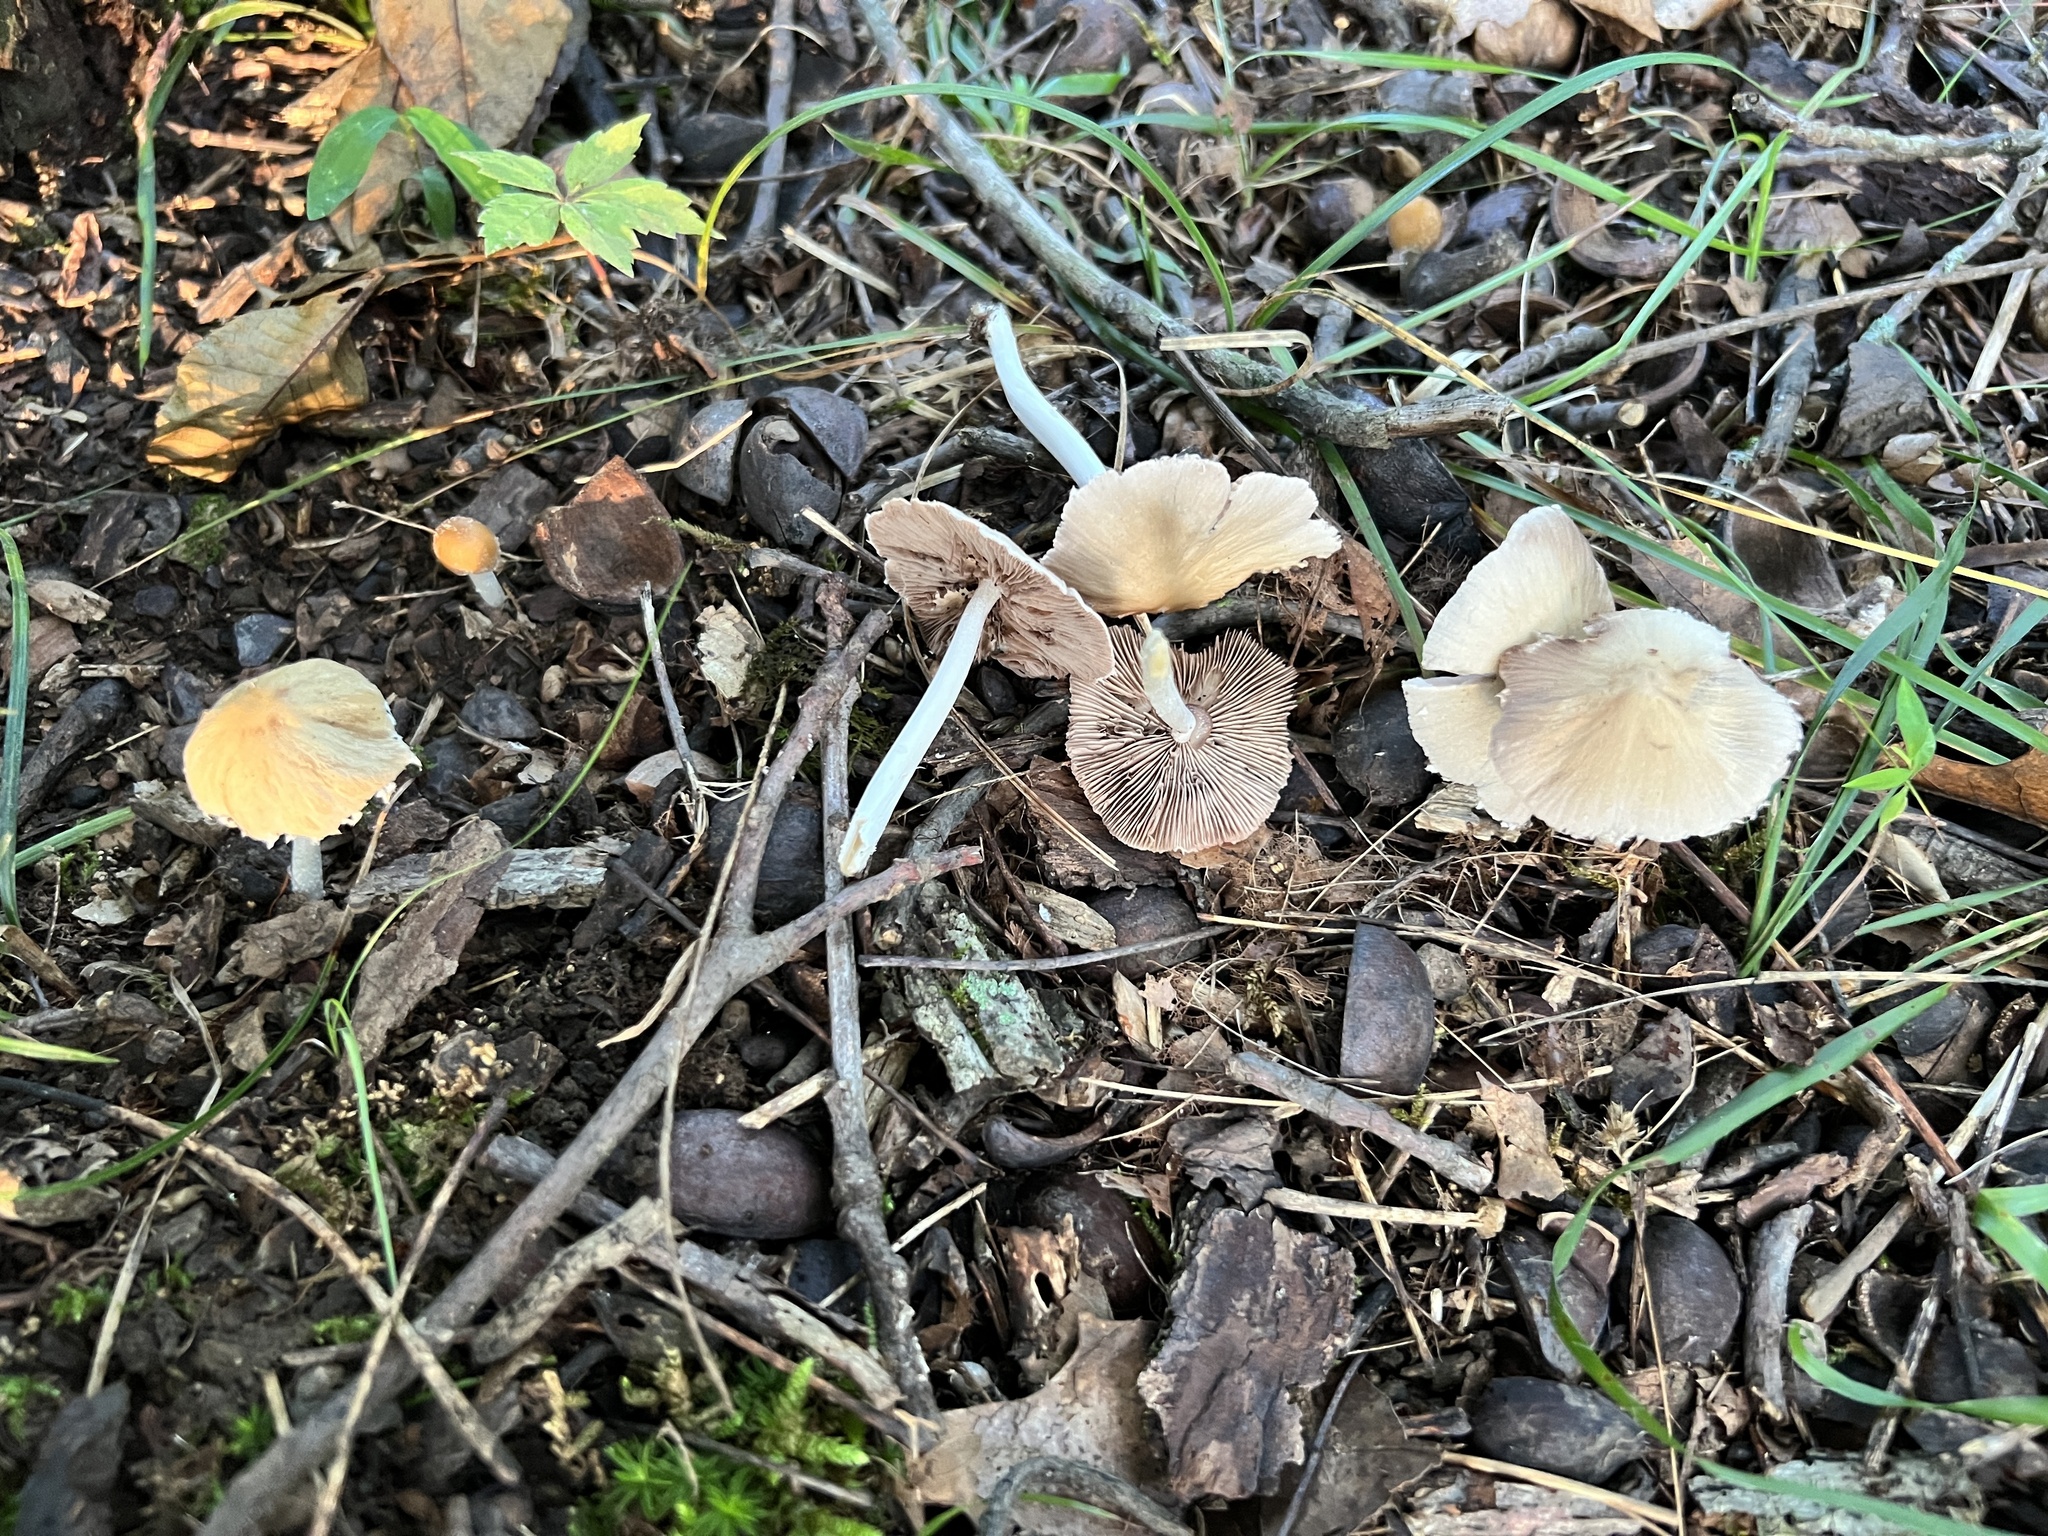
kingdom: Fungi
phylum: Basidiomycota
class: Agaricomycetes
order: Agaricales
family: Psathyrellaceae
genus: Candolleomyces
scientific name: Candolleomyces candolleanus
